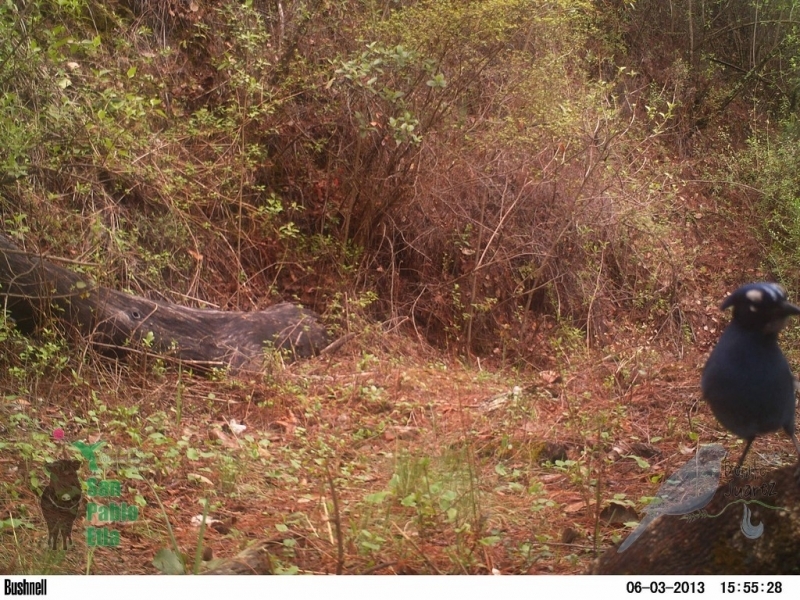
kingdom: Animalia
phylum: Chordata
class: Aves
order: Passeriformes
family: Corvidae
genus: Cyanocitta
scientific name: Cyanocitta stelleri
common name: Steller's jay
